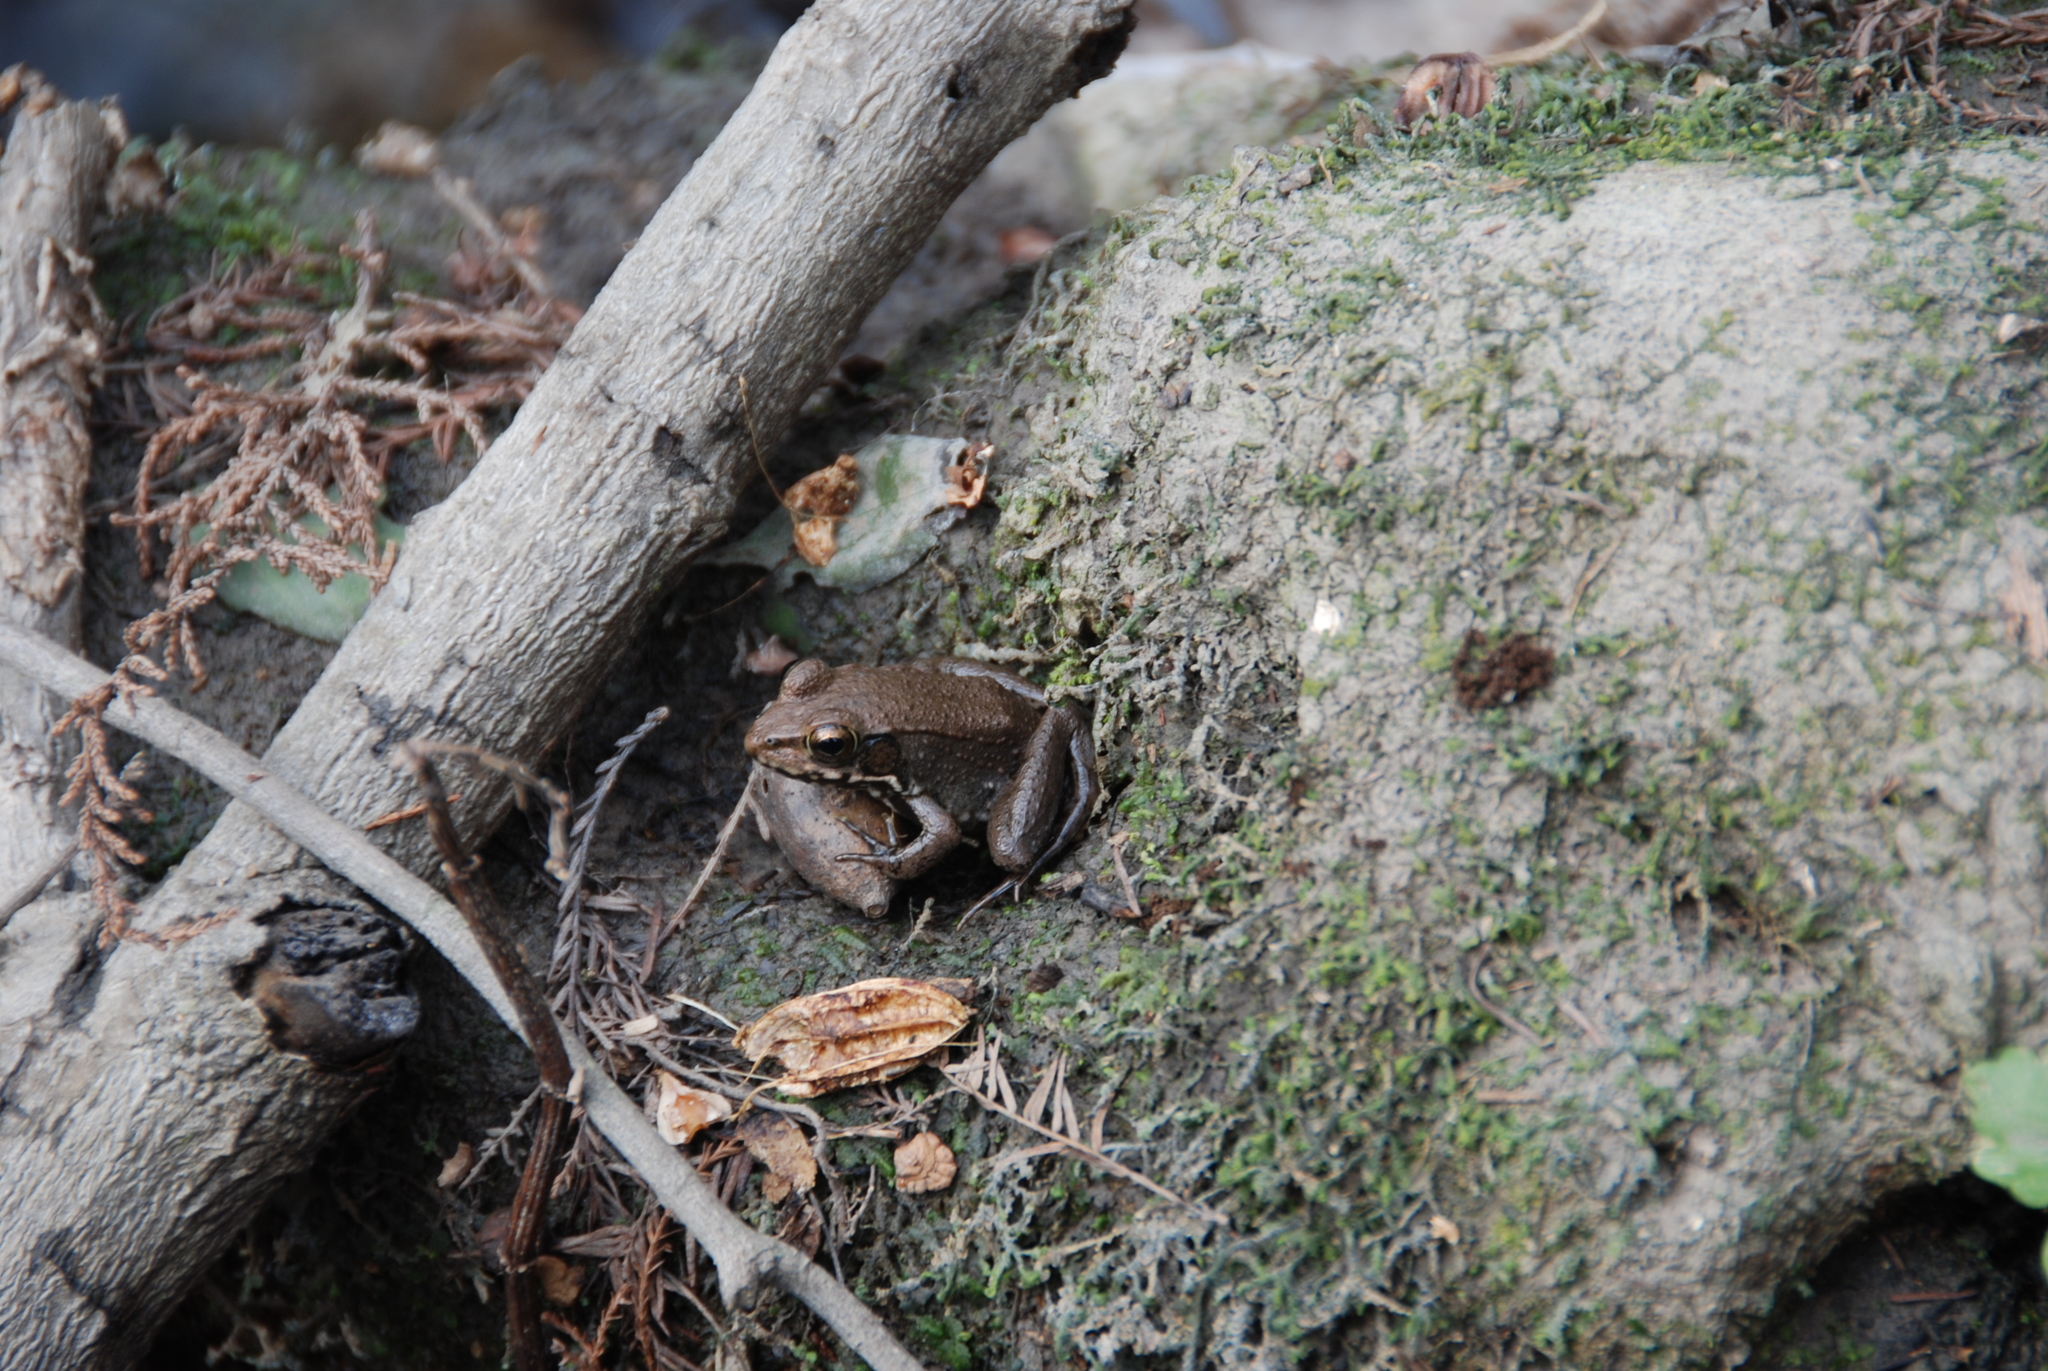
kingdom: Animalia
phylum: Chordata
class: Amphibia
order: Anura
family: Ranidae
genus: Lithobates
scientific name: Lithobates clamitans
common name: Green frog
